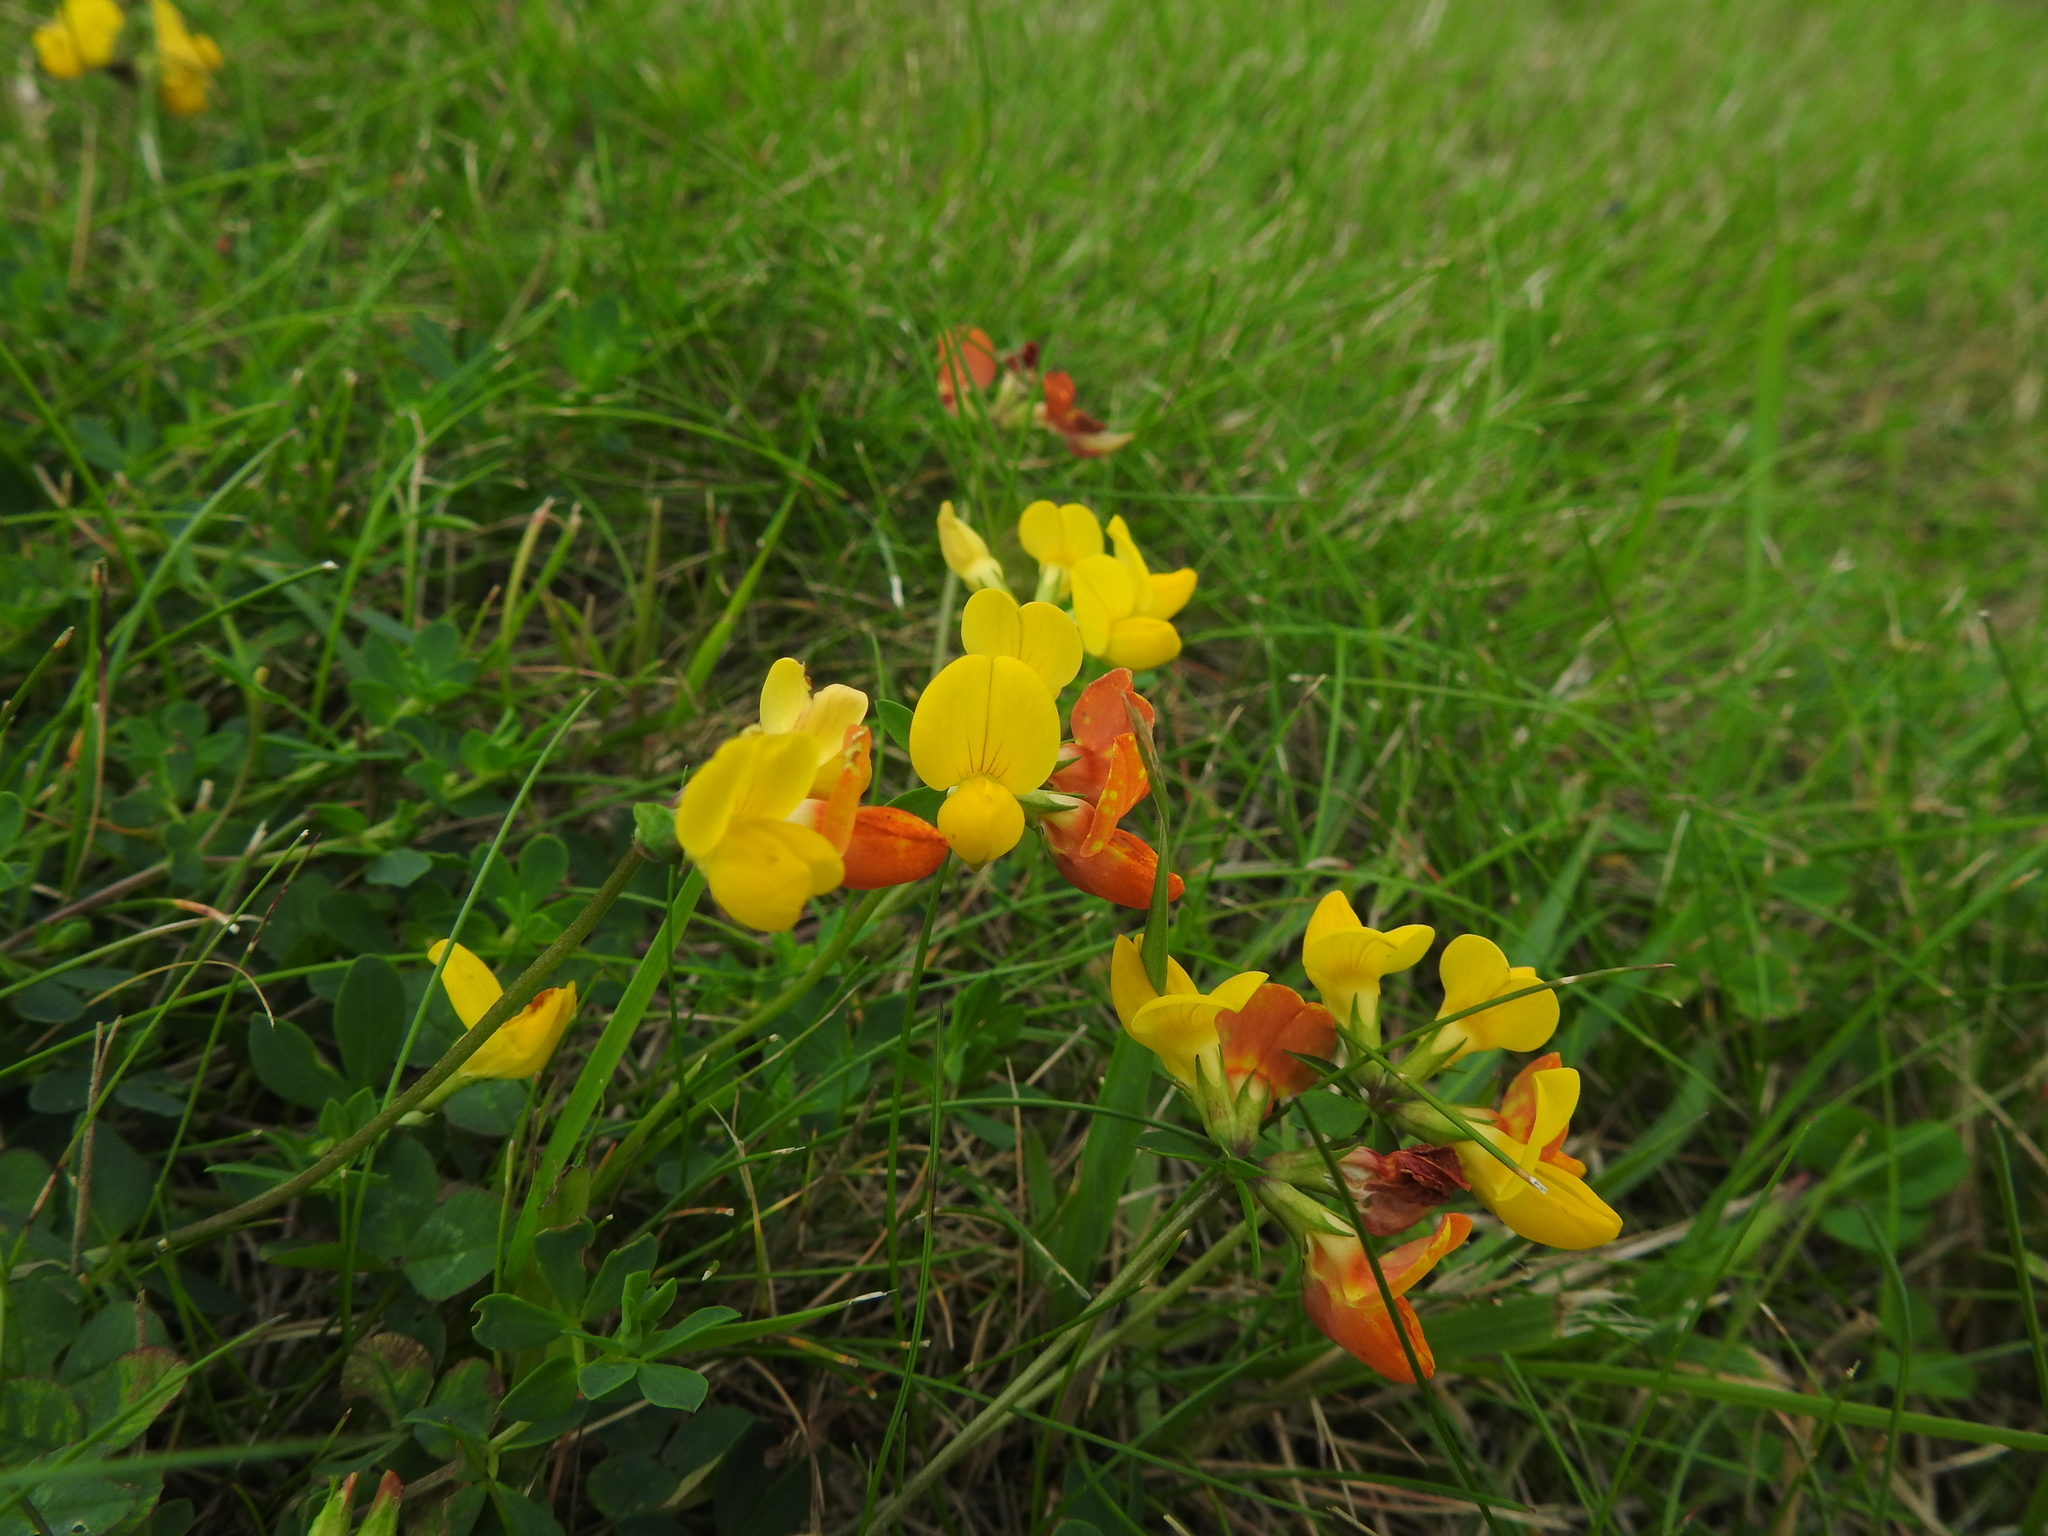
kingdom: Plantae
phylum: Tracheophyta
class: Magnoliopsida
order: Fabales
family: Fabaceae
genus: Lotus
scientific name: Lotus corniculatus
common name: Common bird's-foot-trefoil
